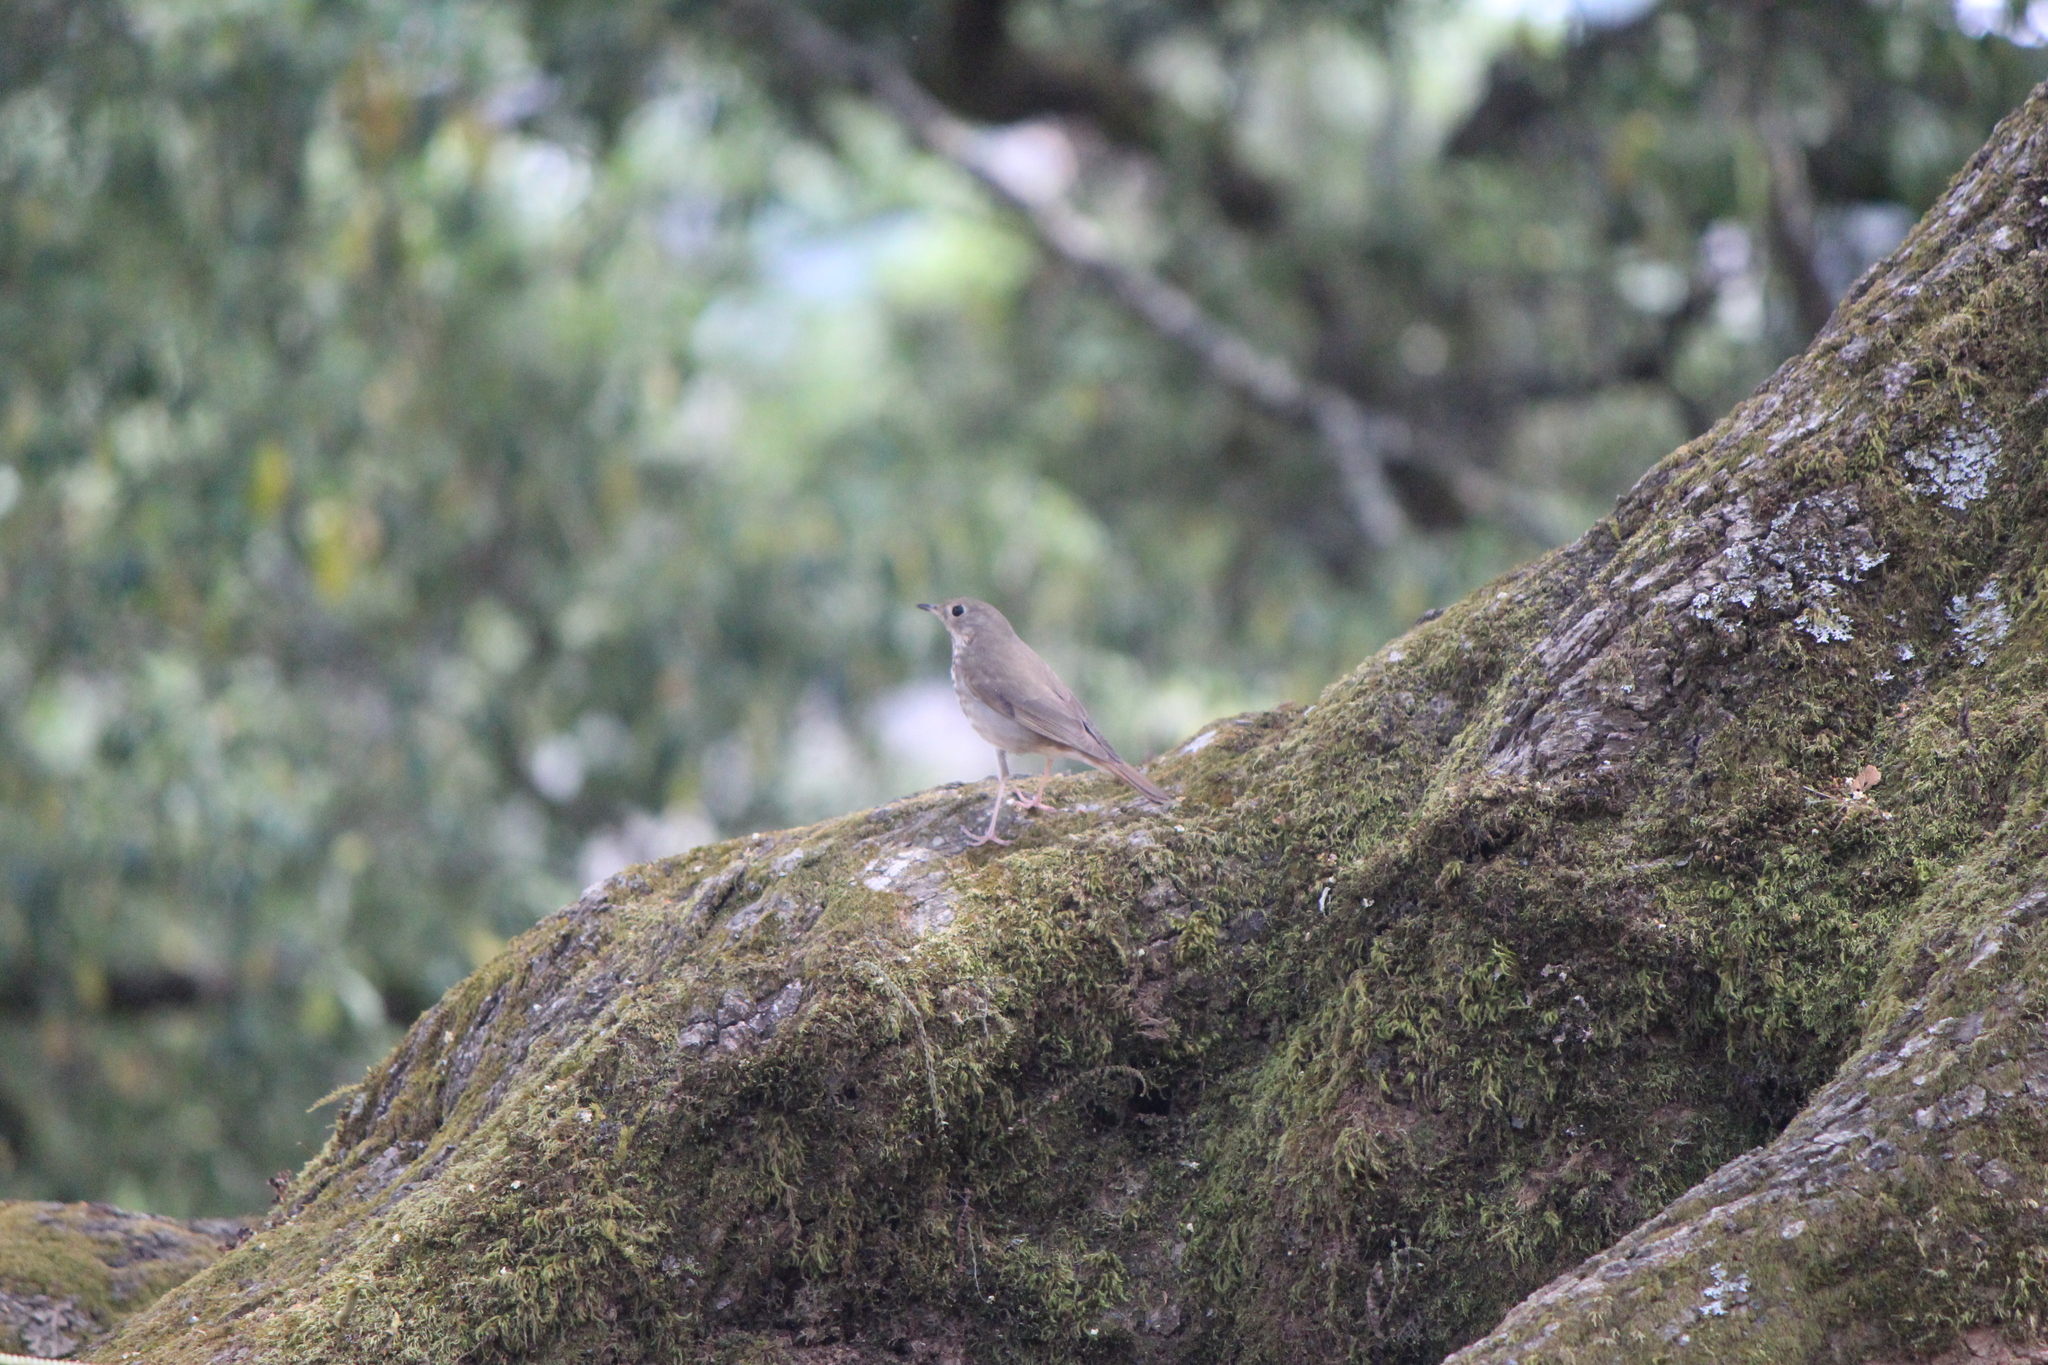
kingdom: Animalia
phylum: Chordata
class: Aves
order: Passeriformes
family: Turdidae
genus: Catharus
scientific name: Catharus guttatus
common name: Hermit thrush
